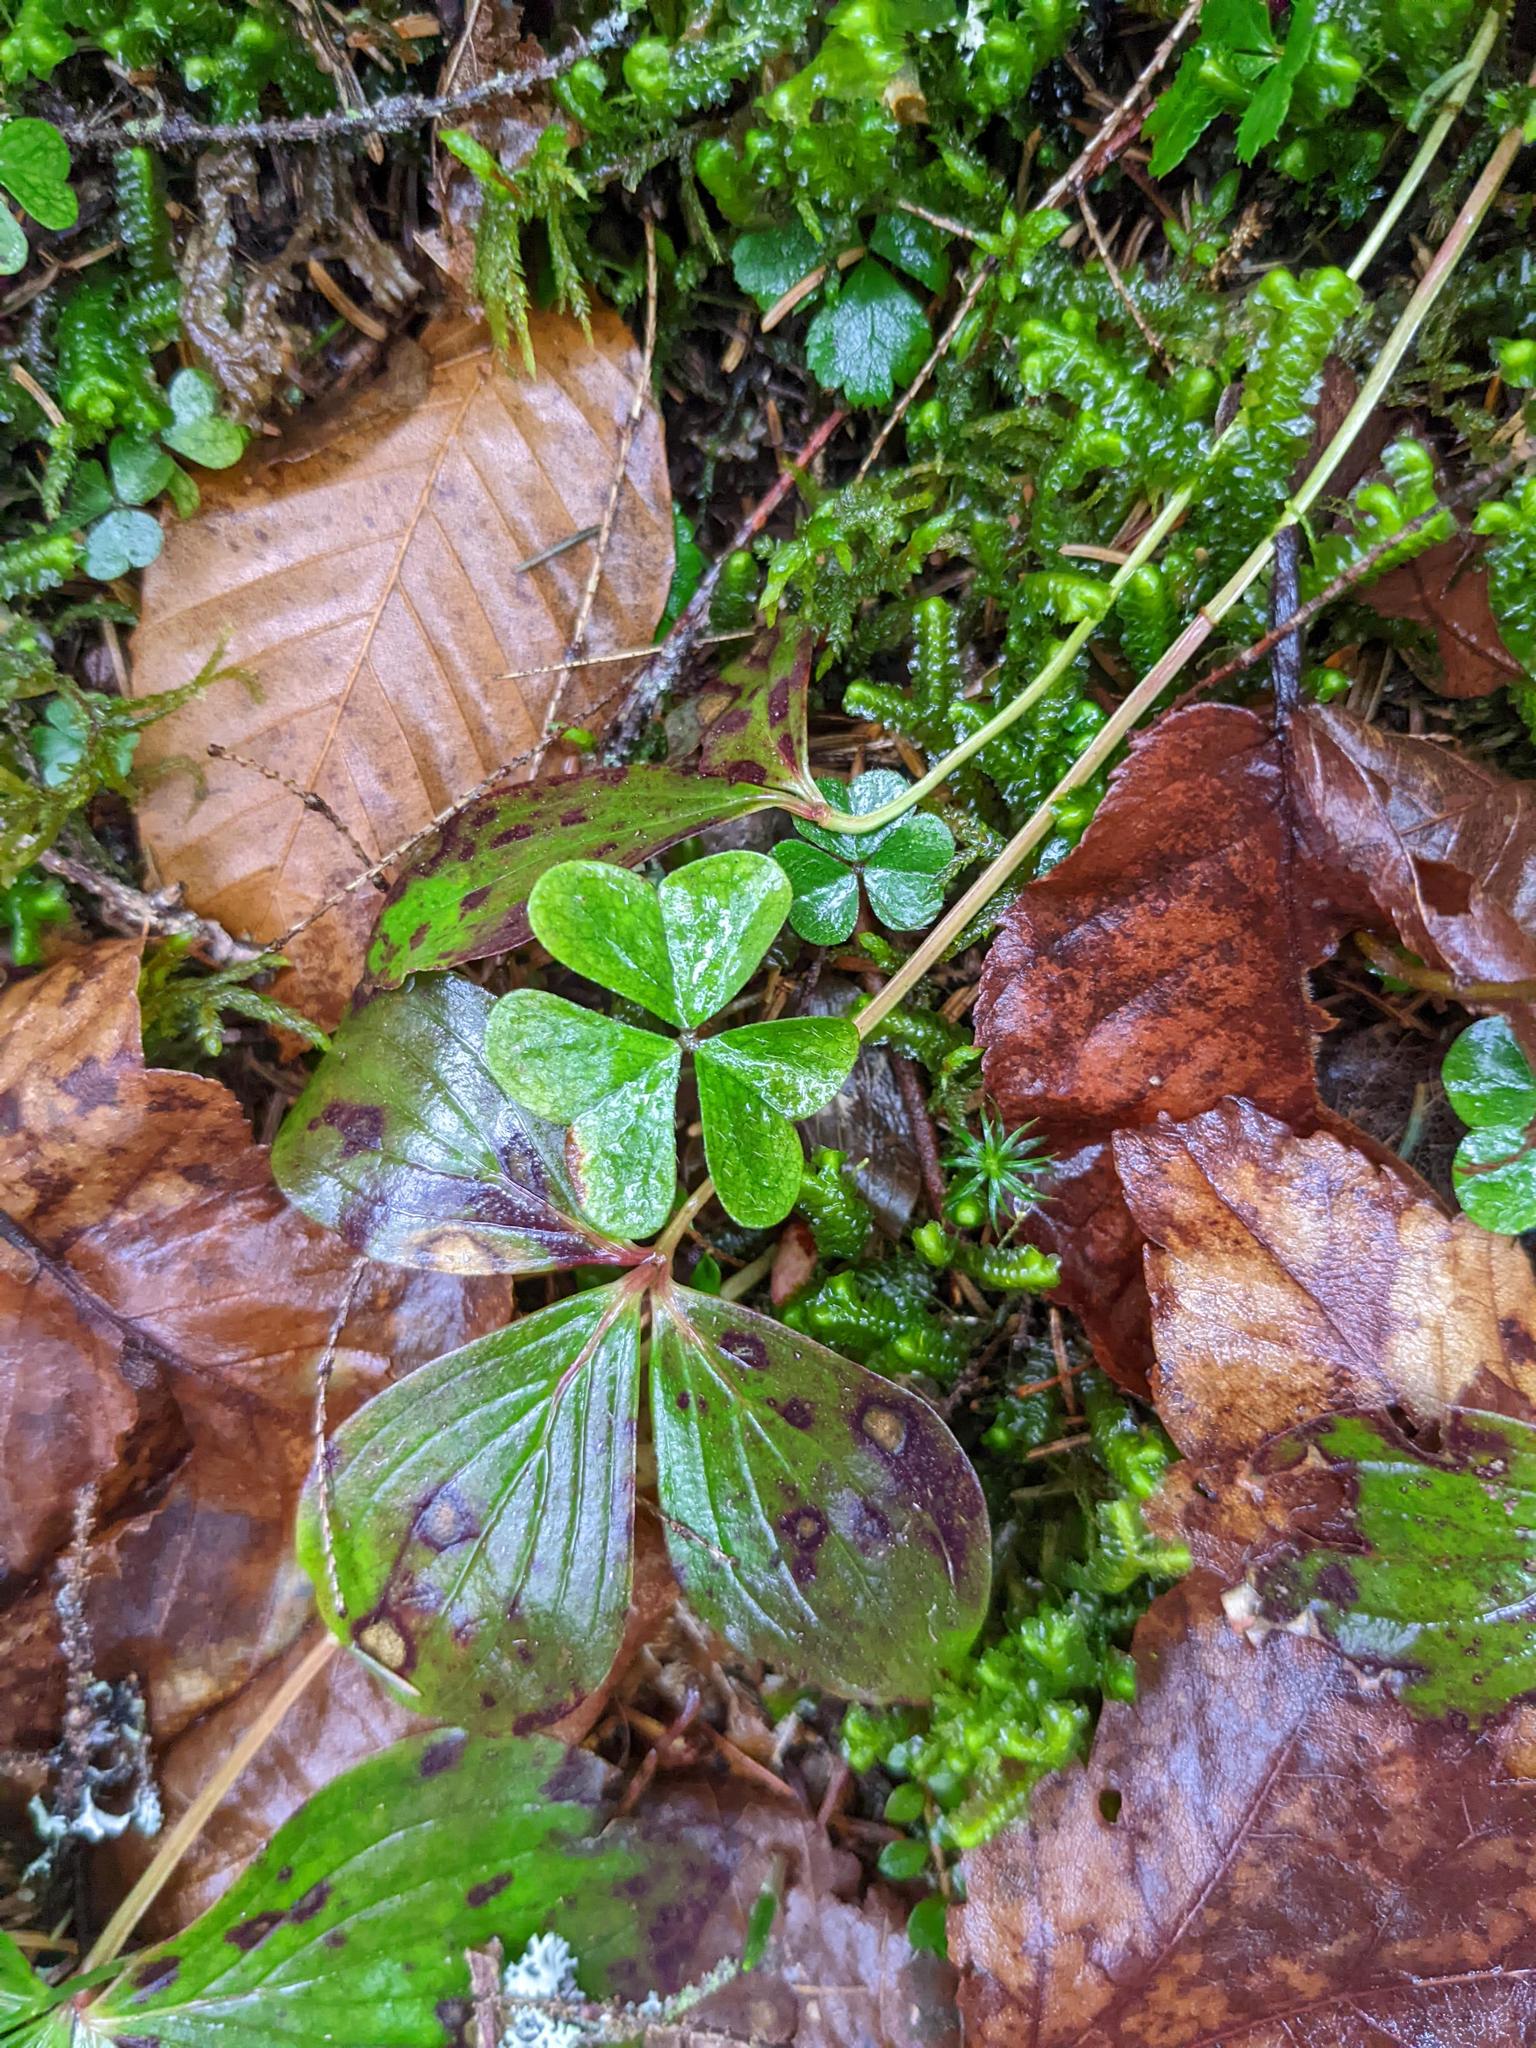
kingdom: Plantae
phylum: Tracheophyta
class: Magnoliopsida
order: Oxalidales
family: Oxalidaceae
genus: Oxalis
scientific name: Oxalis montana
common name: American wood-sorrel
